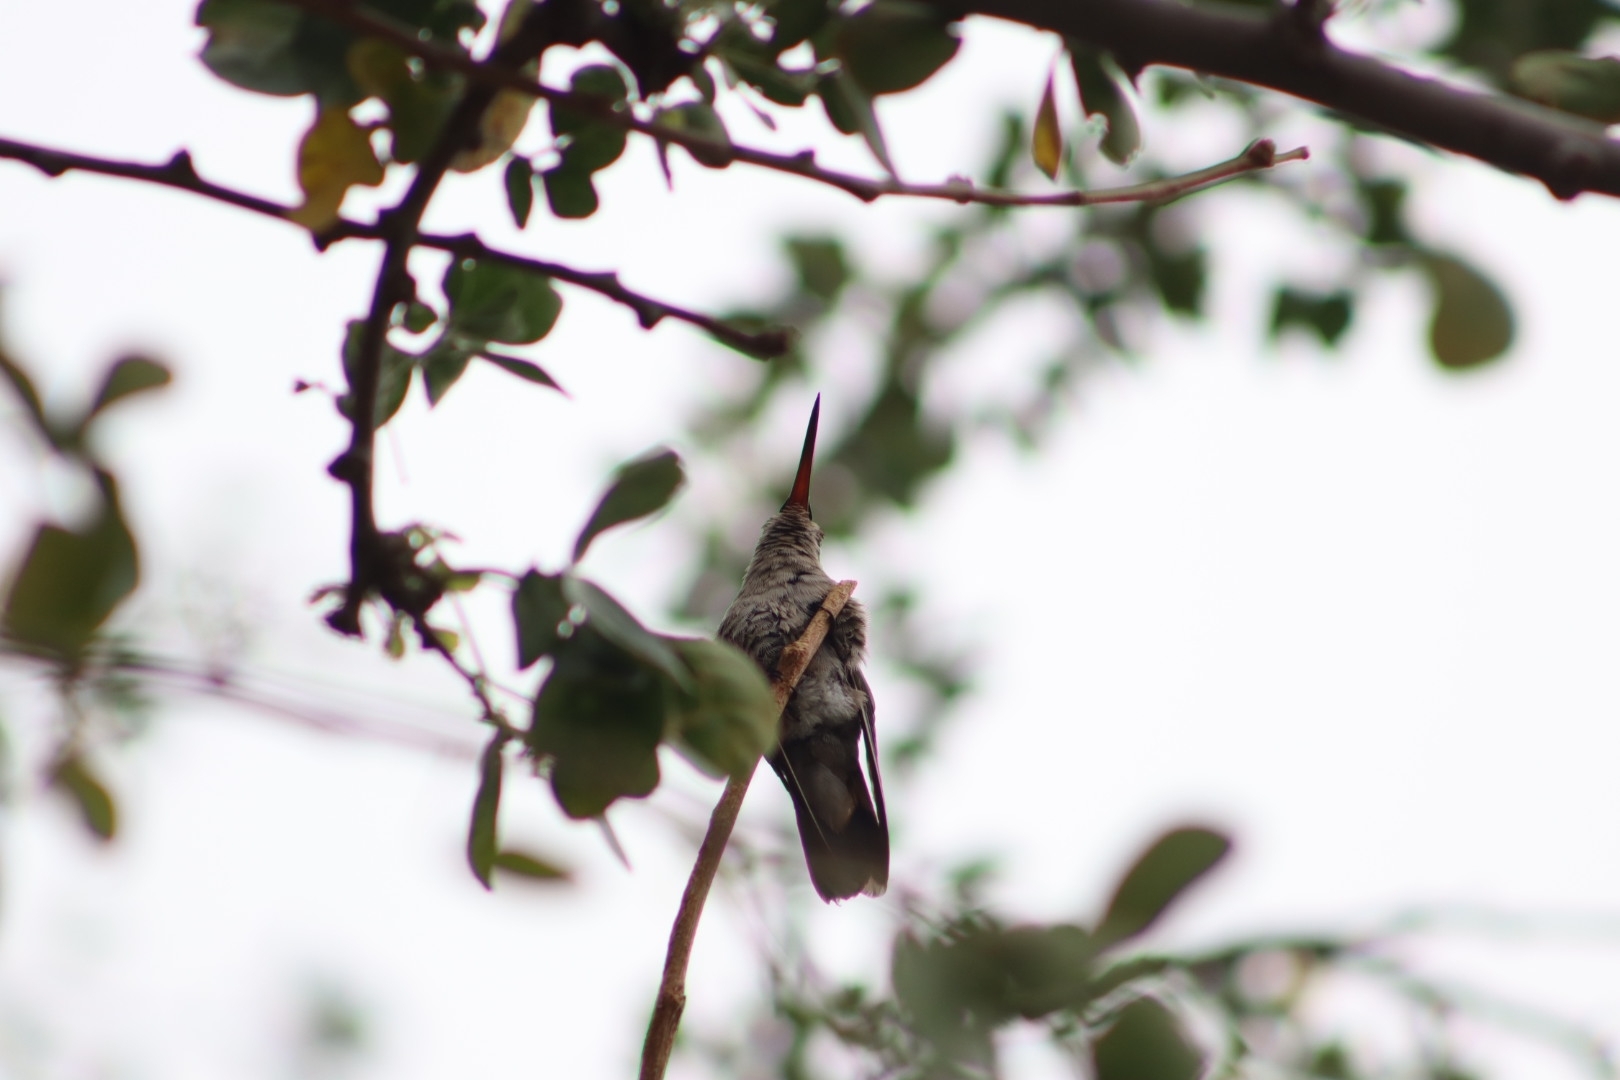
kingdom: Animalia
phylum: Chordata
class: Aves
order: Apodiformes
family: Trochilidae
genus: Cynanthus
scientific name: Cynanthus latirostris
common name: Broad-billed hummingbird
